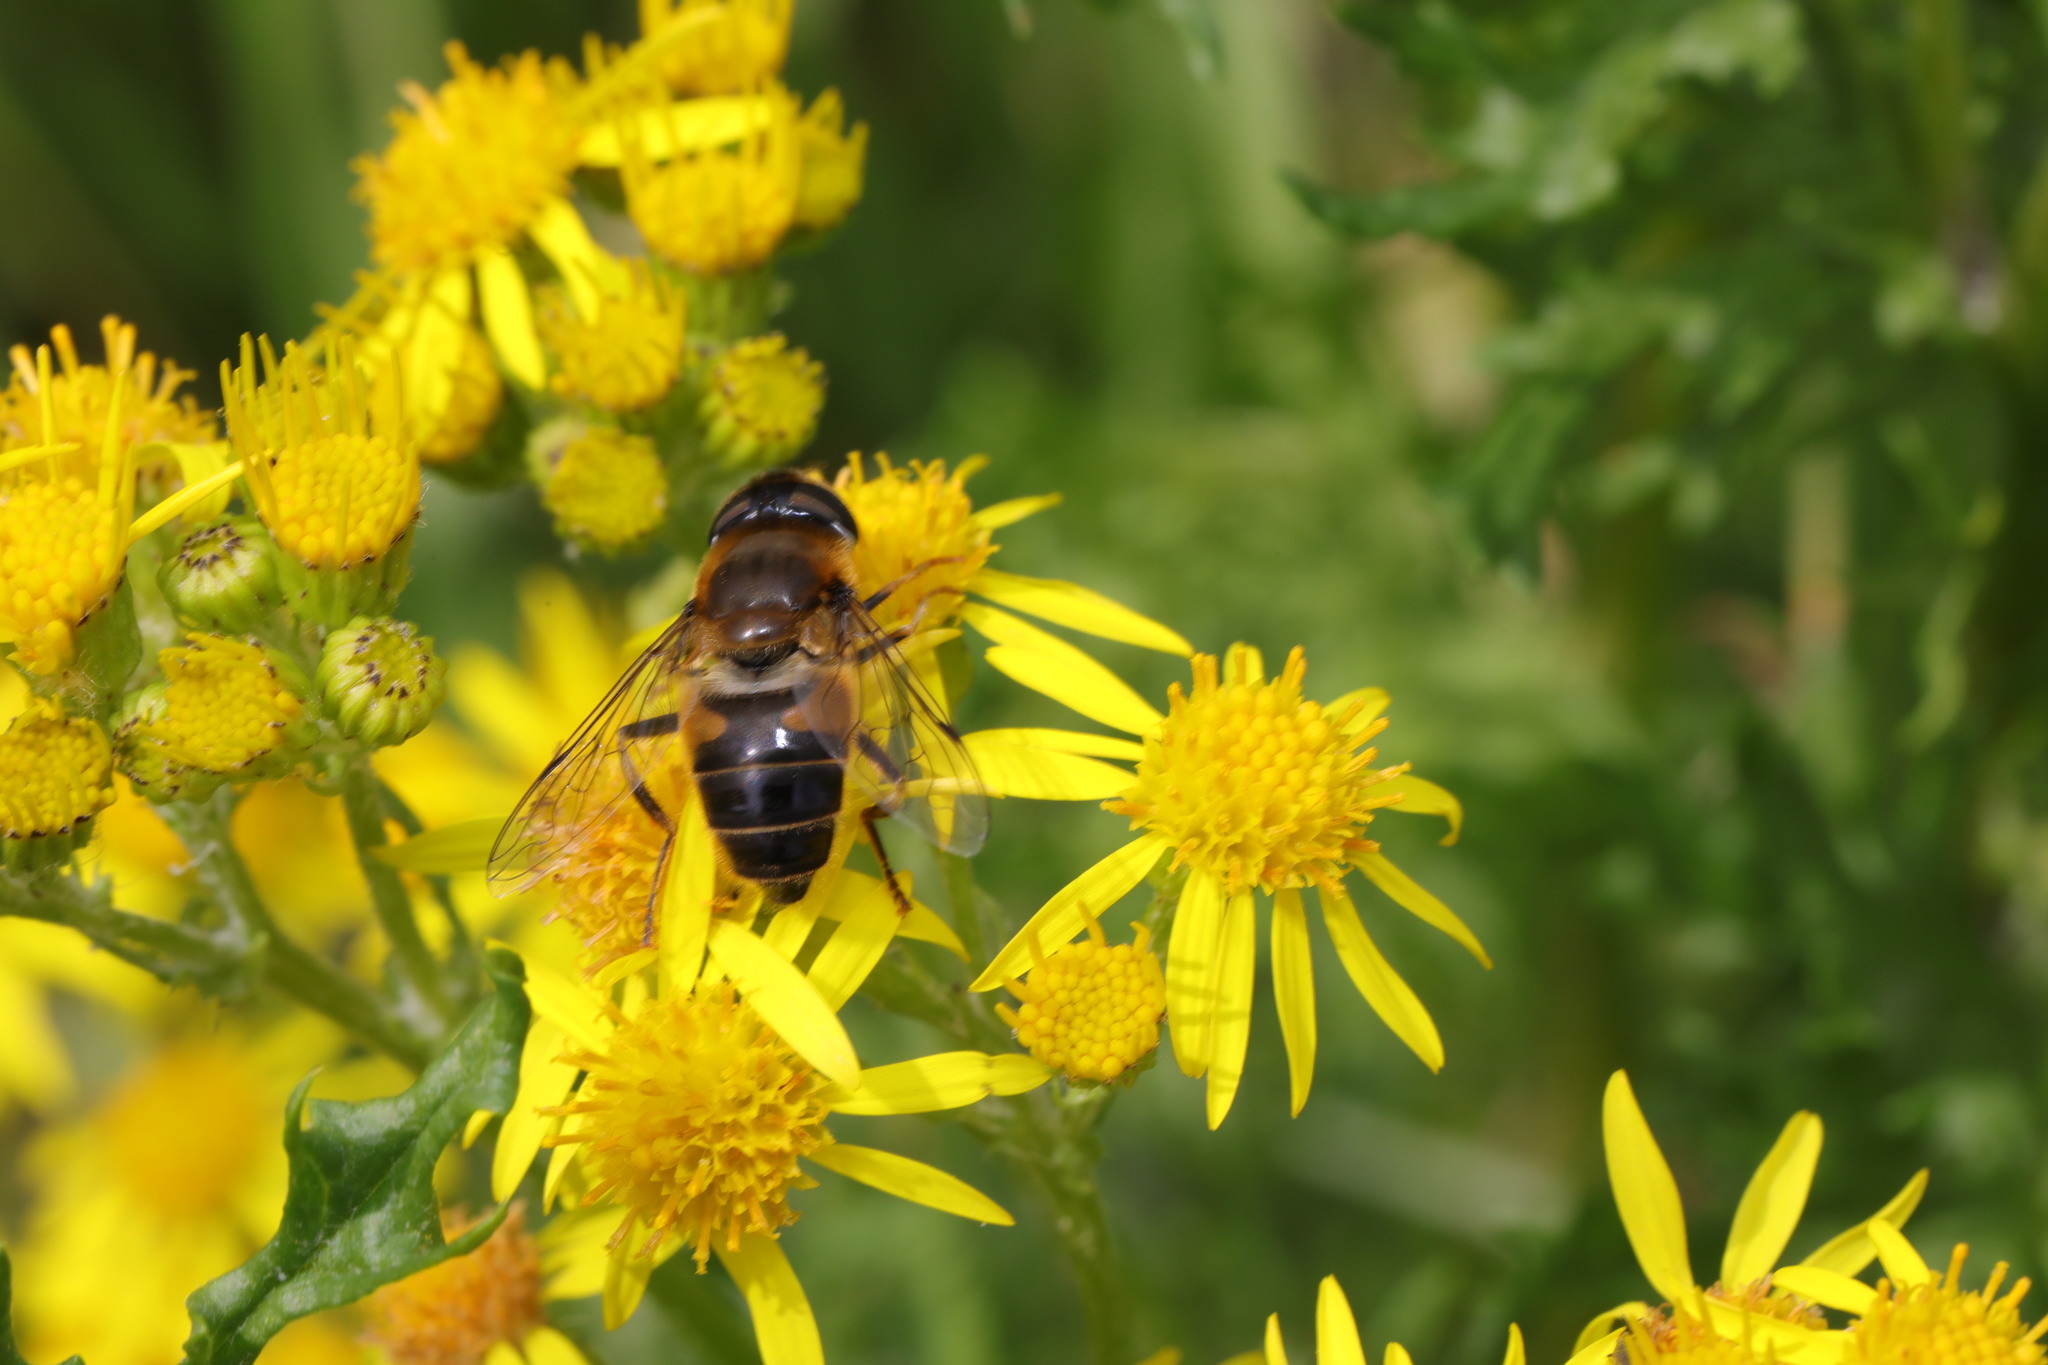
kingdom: Animalia
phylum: Arthropoda
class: Insecta
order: Diptera
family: Syrphidae
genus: Eristalis
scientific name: Eristalis pertinax
